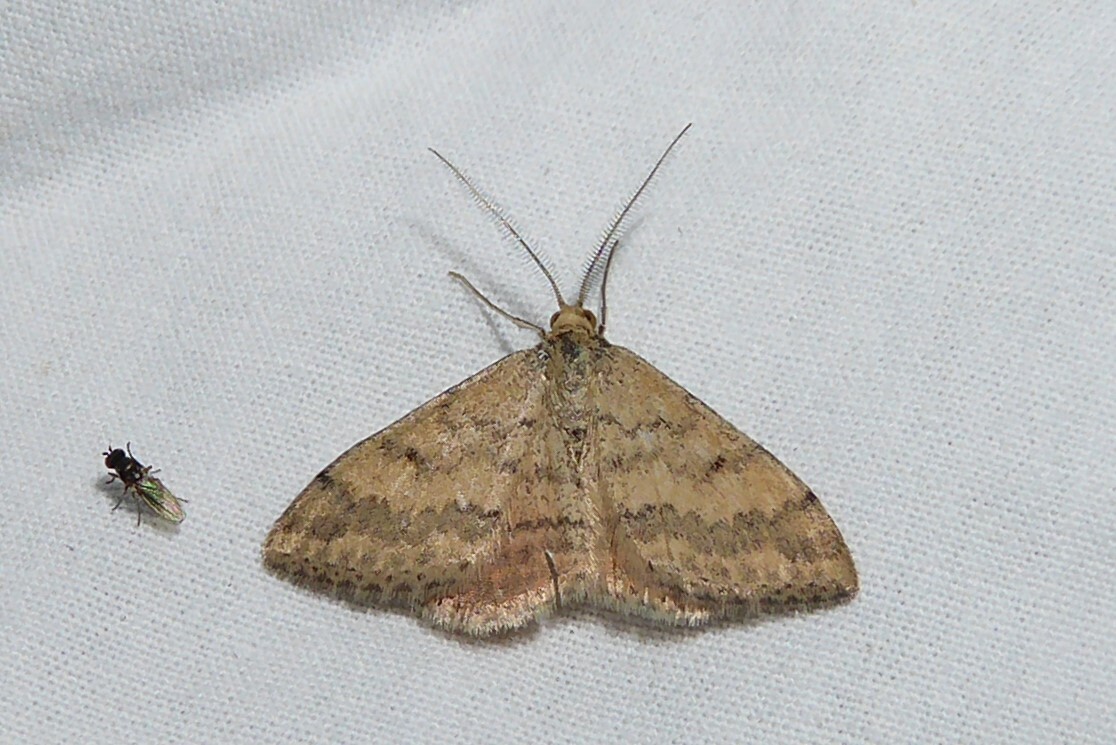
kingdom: Animalia
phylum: Arthropoda
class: Insecta
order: Lepidoptera
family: Geometridae
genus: Scopula
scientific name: Scopula rubraria
